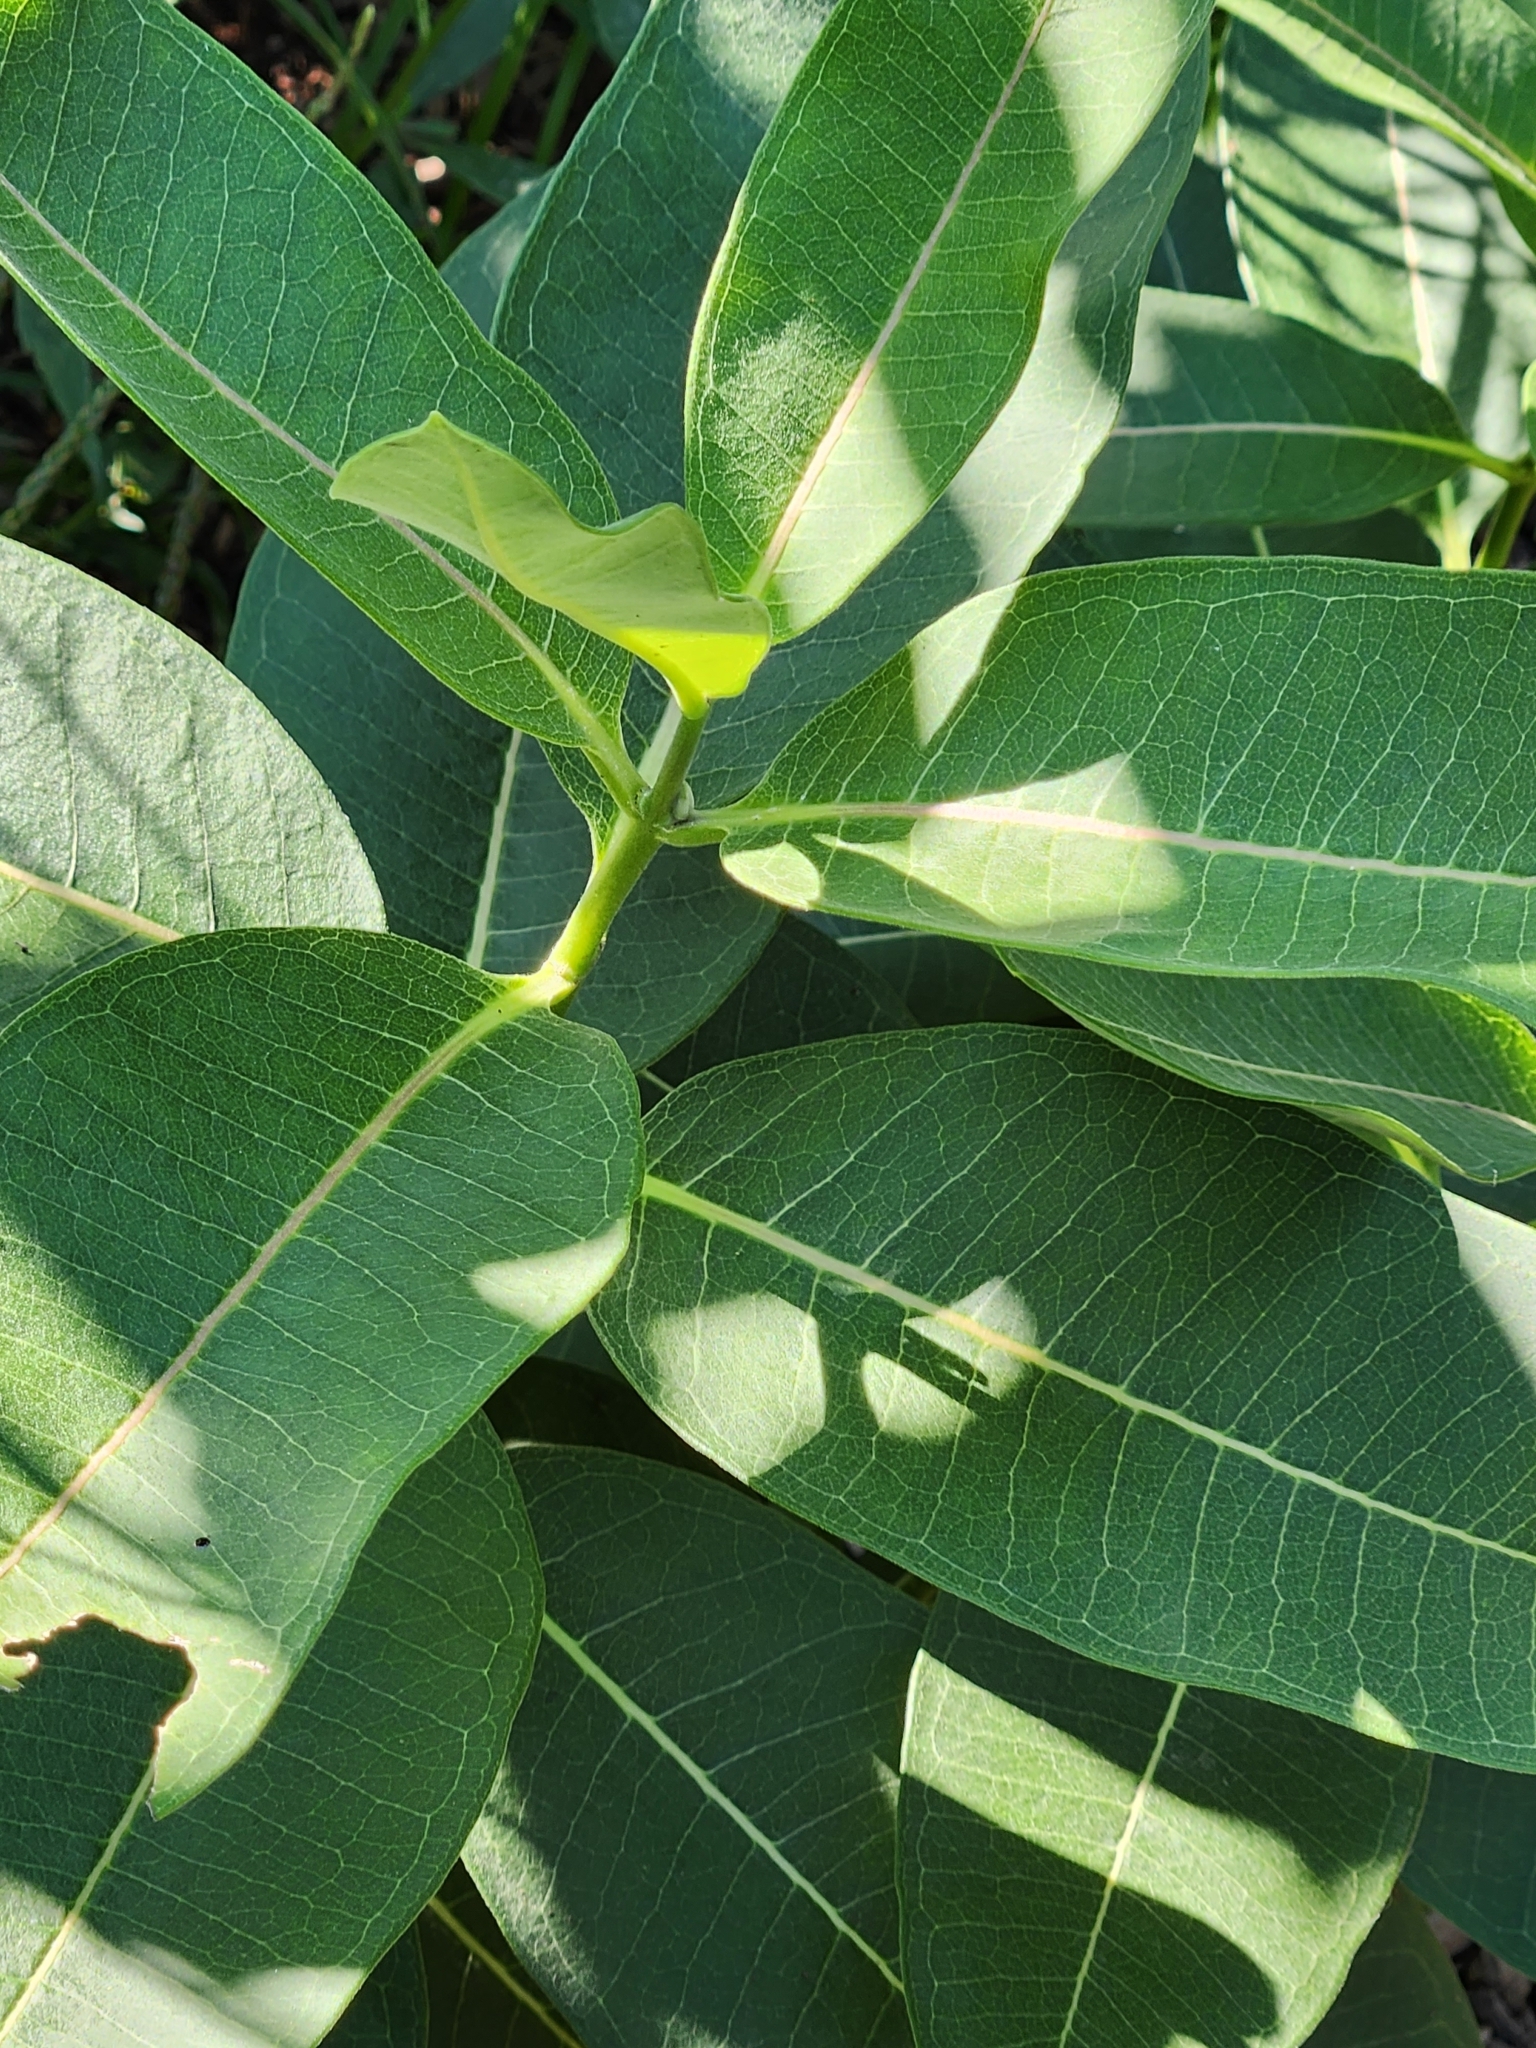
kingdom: Plantae
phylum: Tracheophyta
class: Magnoliopsida
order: Gentianales
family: Apocynaceae
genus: Asclepias
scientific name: Asclepias syriaca
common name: Common milkweed
